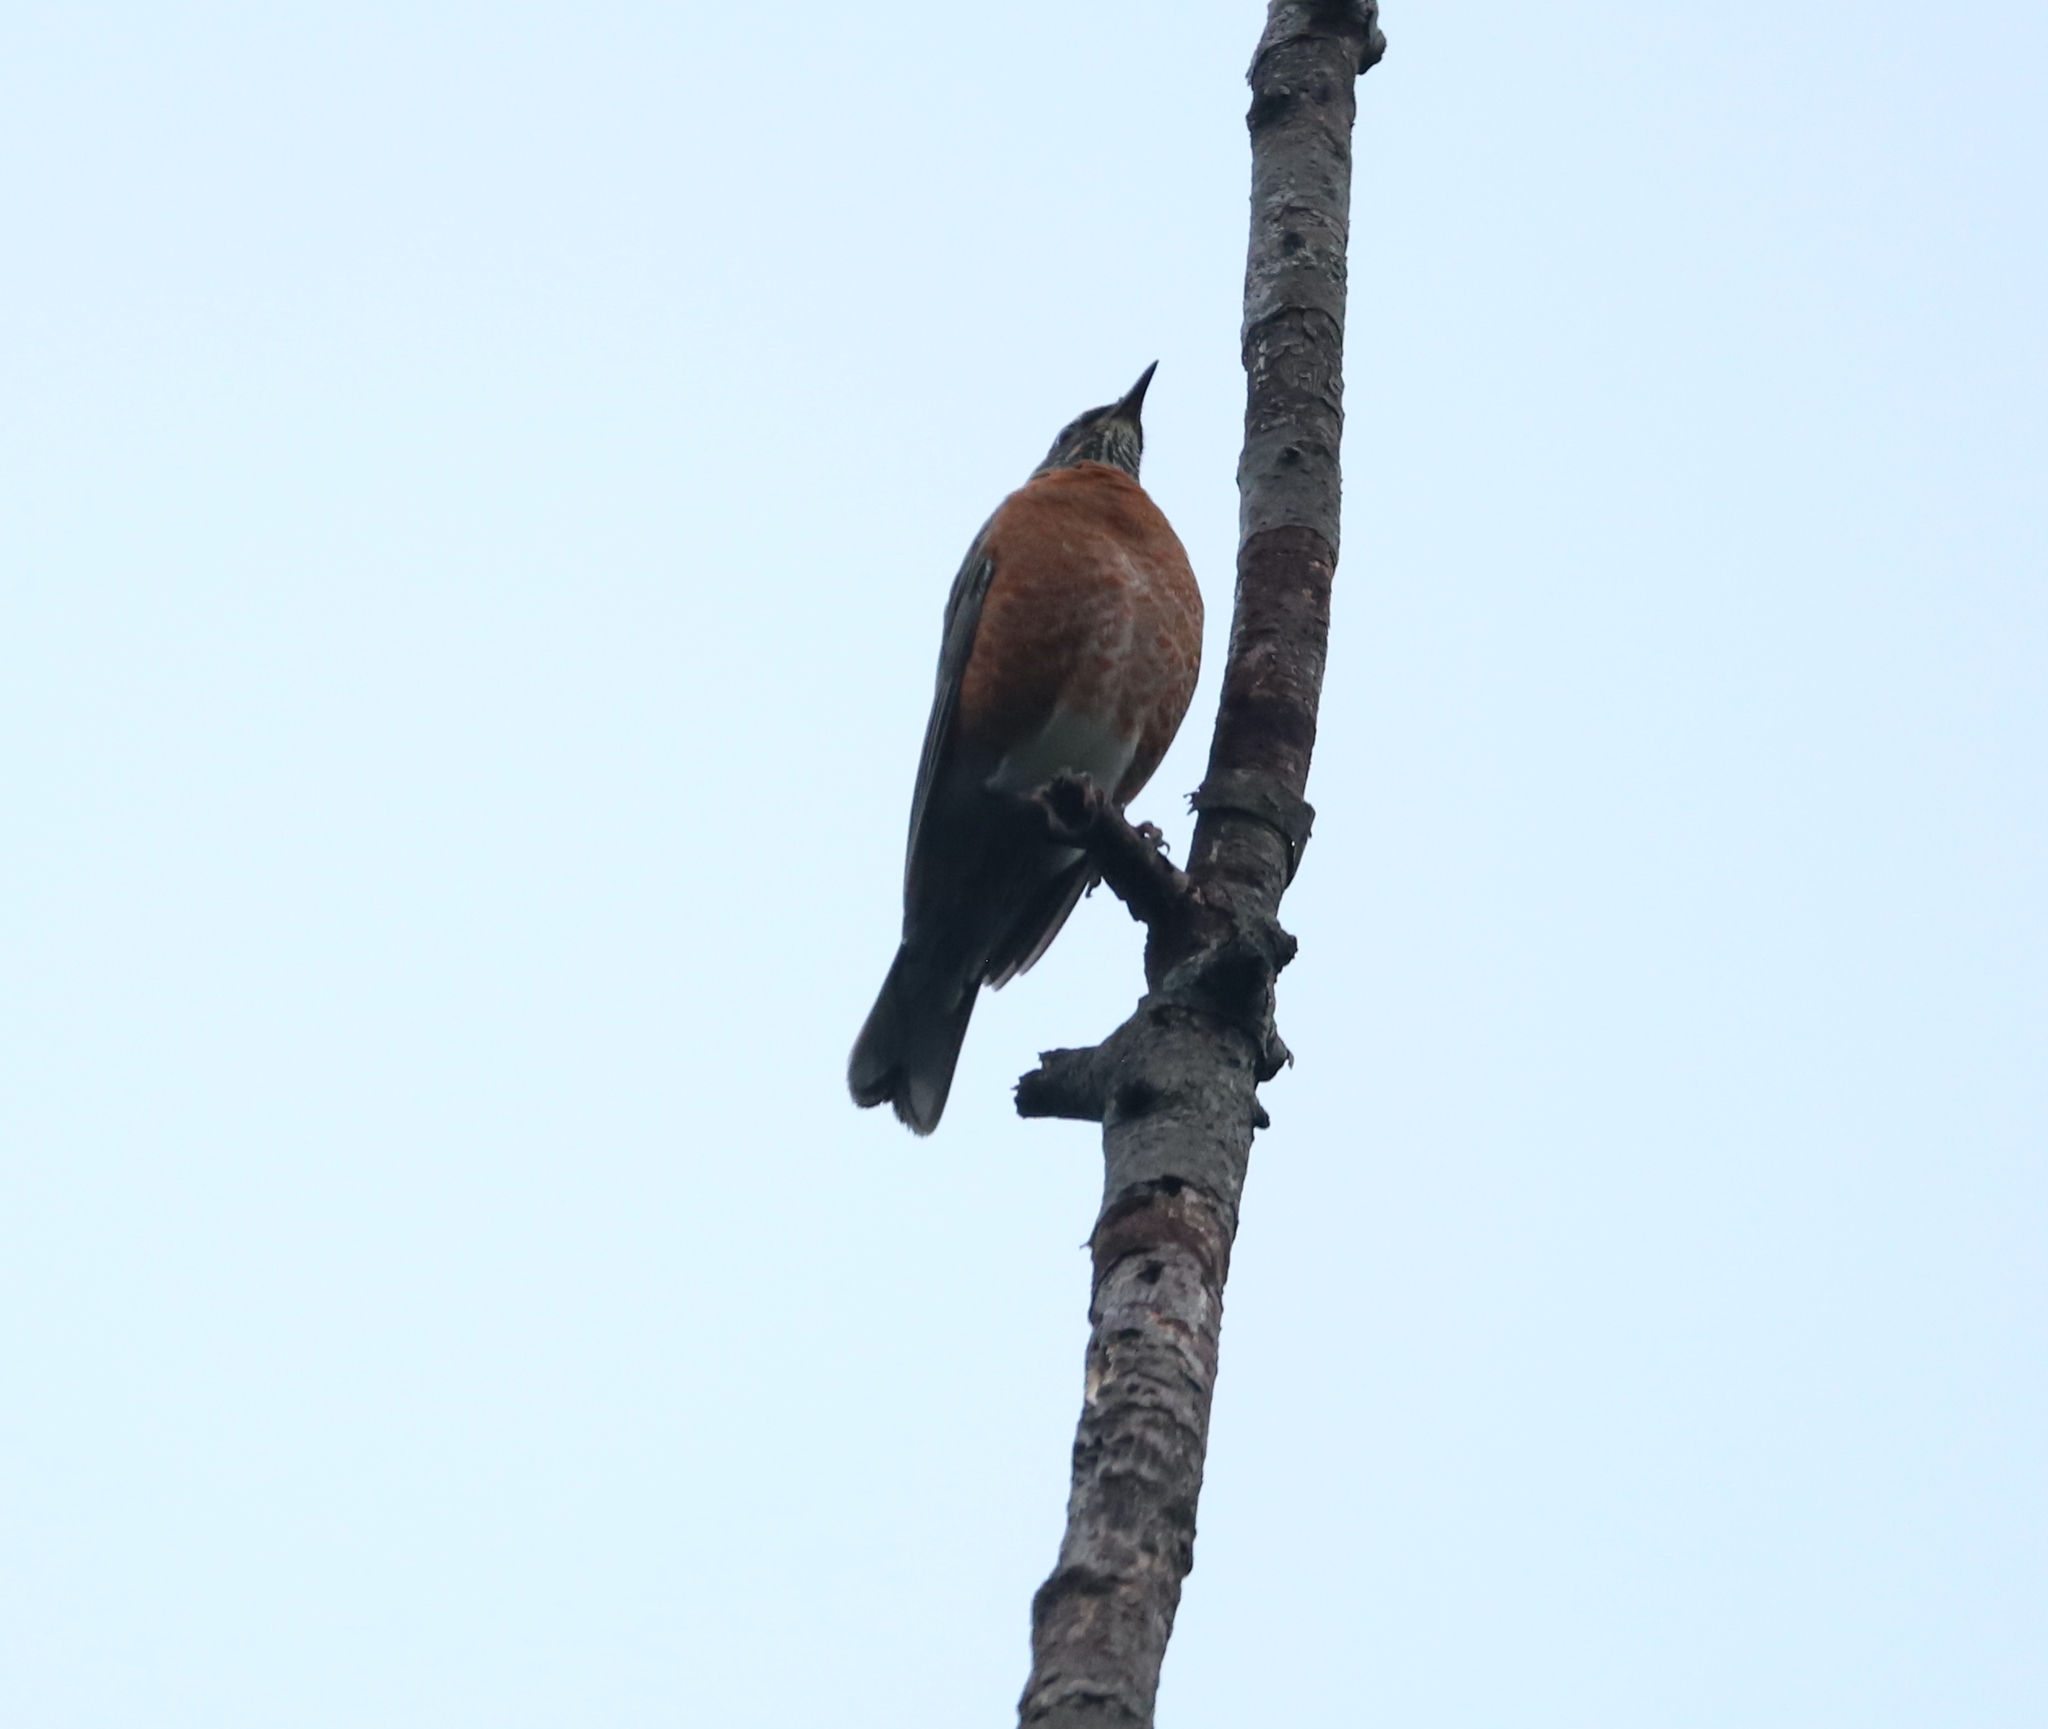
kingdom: Animalia
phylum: Chordata
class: Aves
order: Passeriformes
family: Turdidae
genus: Turdus
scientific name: Turdus migratorius
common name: American robin
